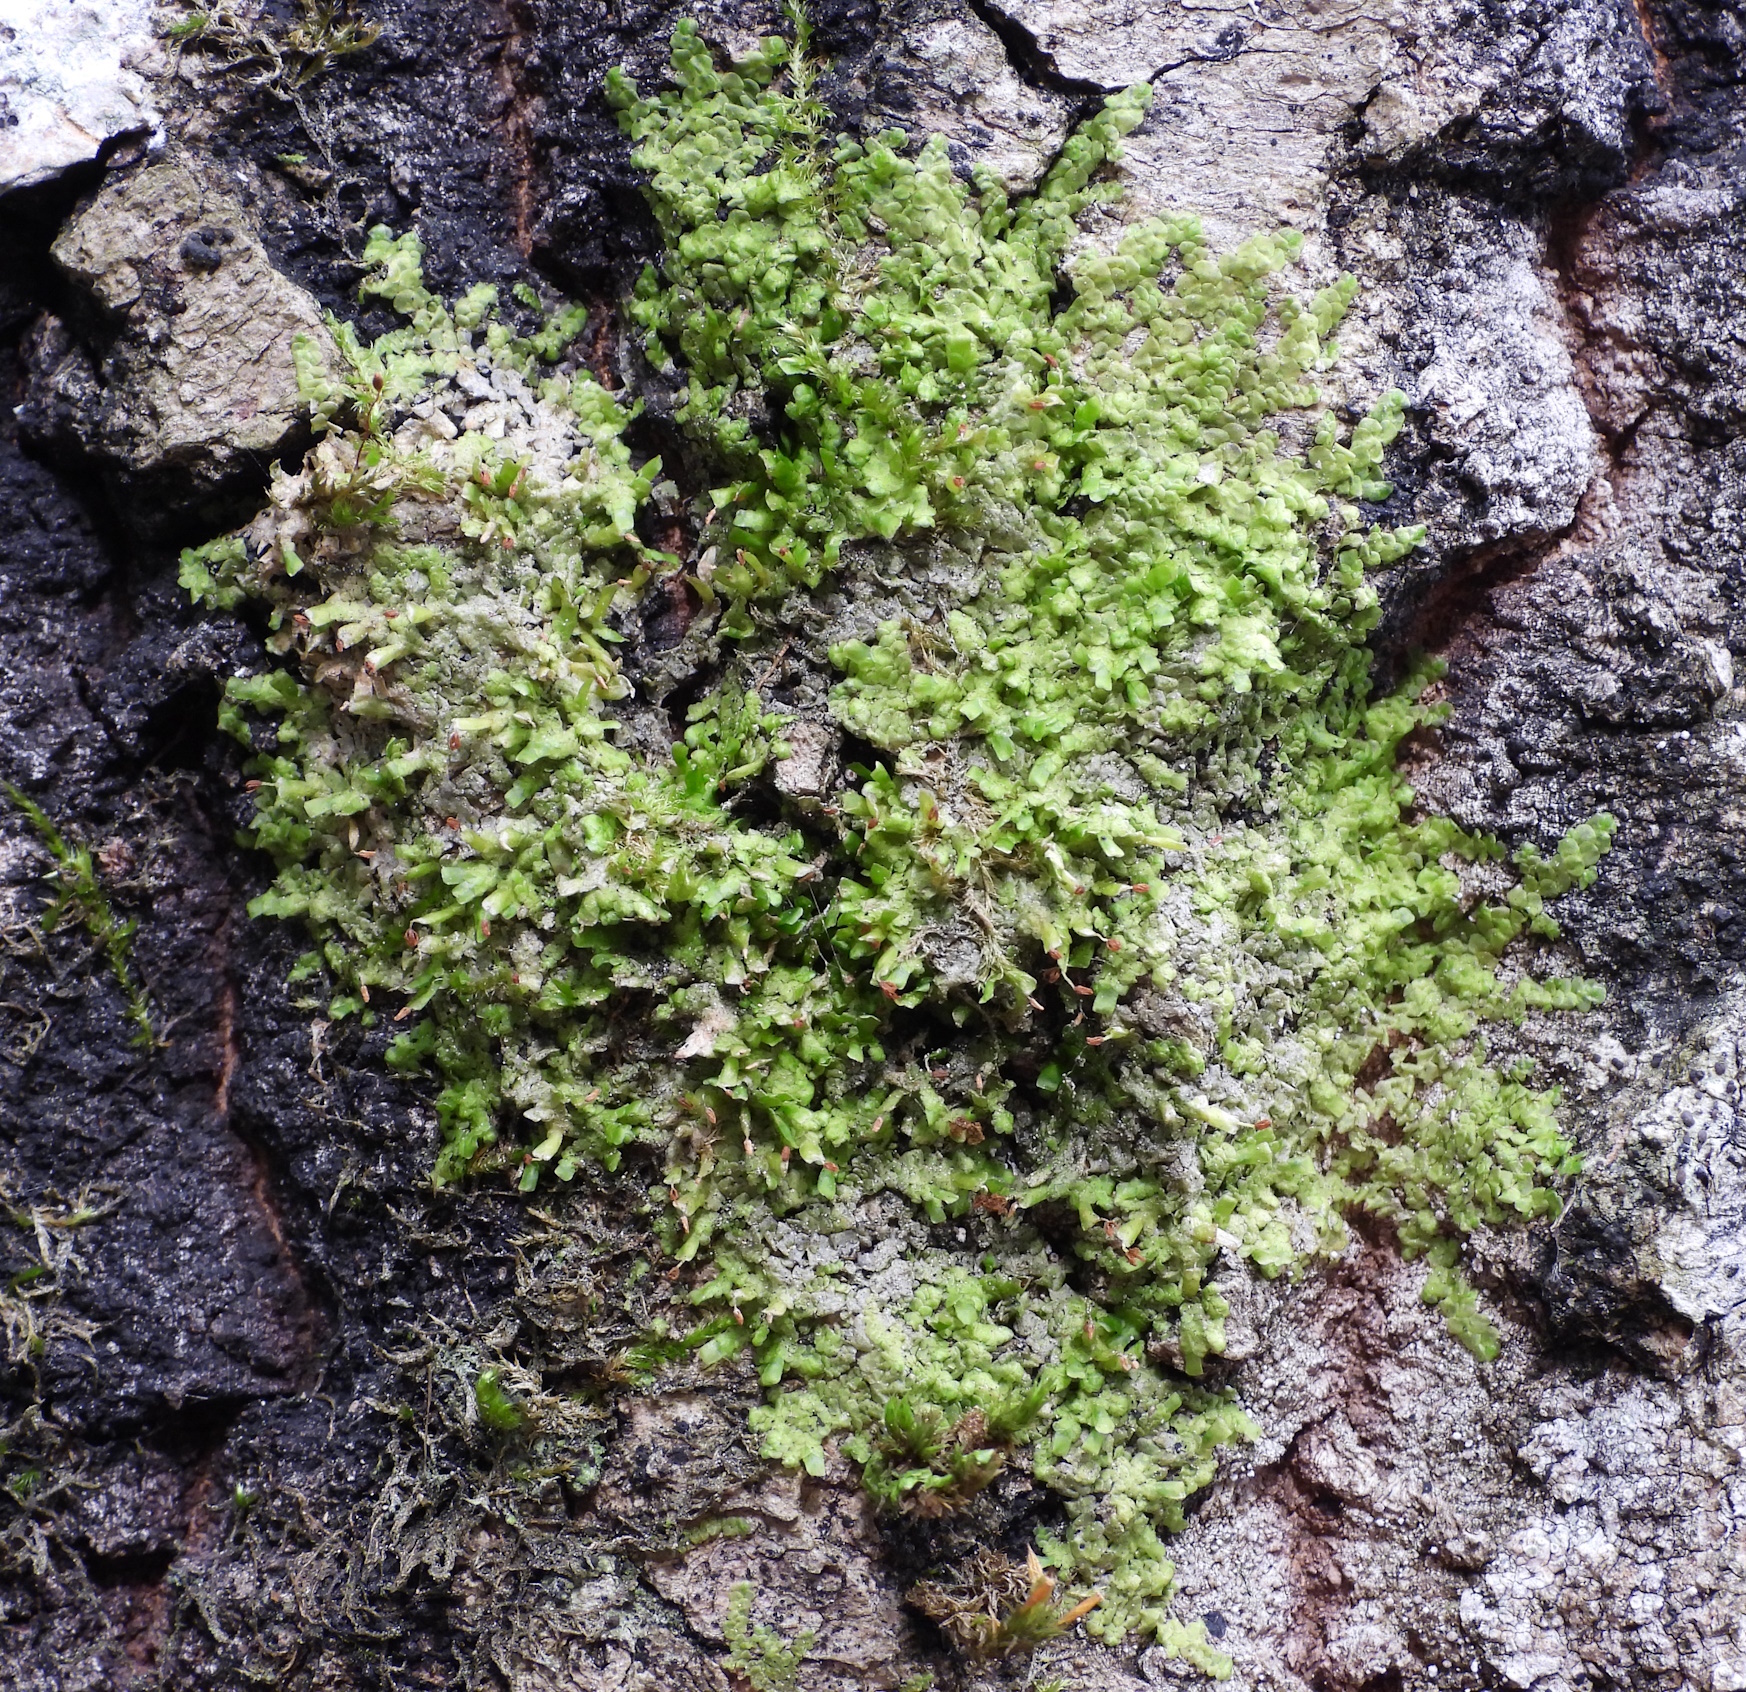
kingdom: Plantae
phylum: Marchantiophyta
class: Jungermanniopsida
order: Porellales
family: Radulaceae
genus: Radula
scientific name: Radula complanata
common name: Flat-leaved scalewort
